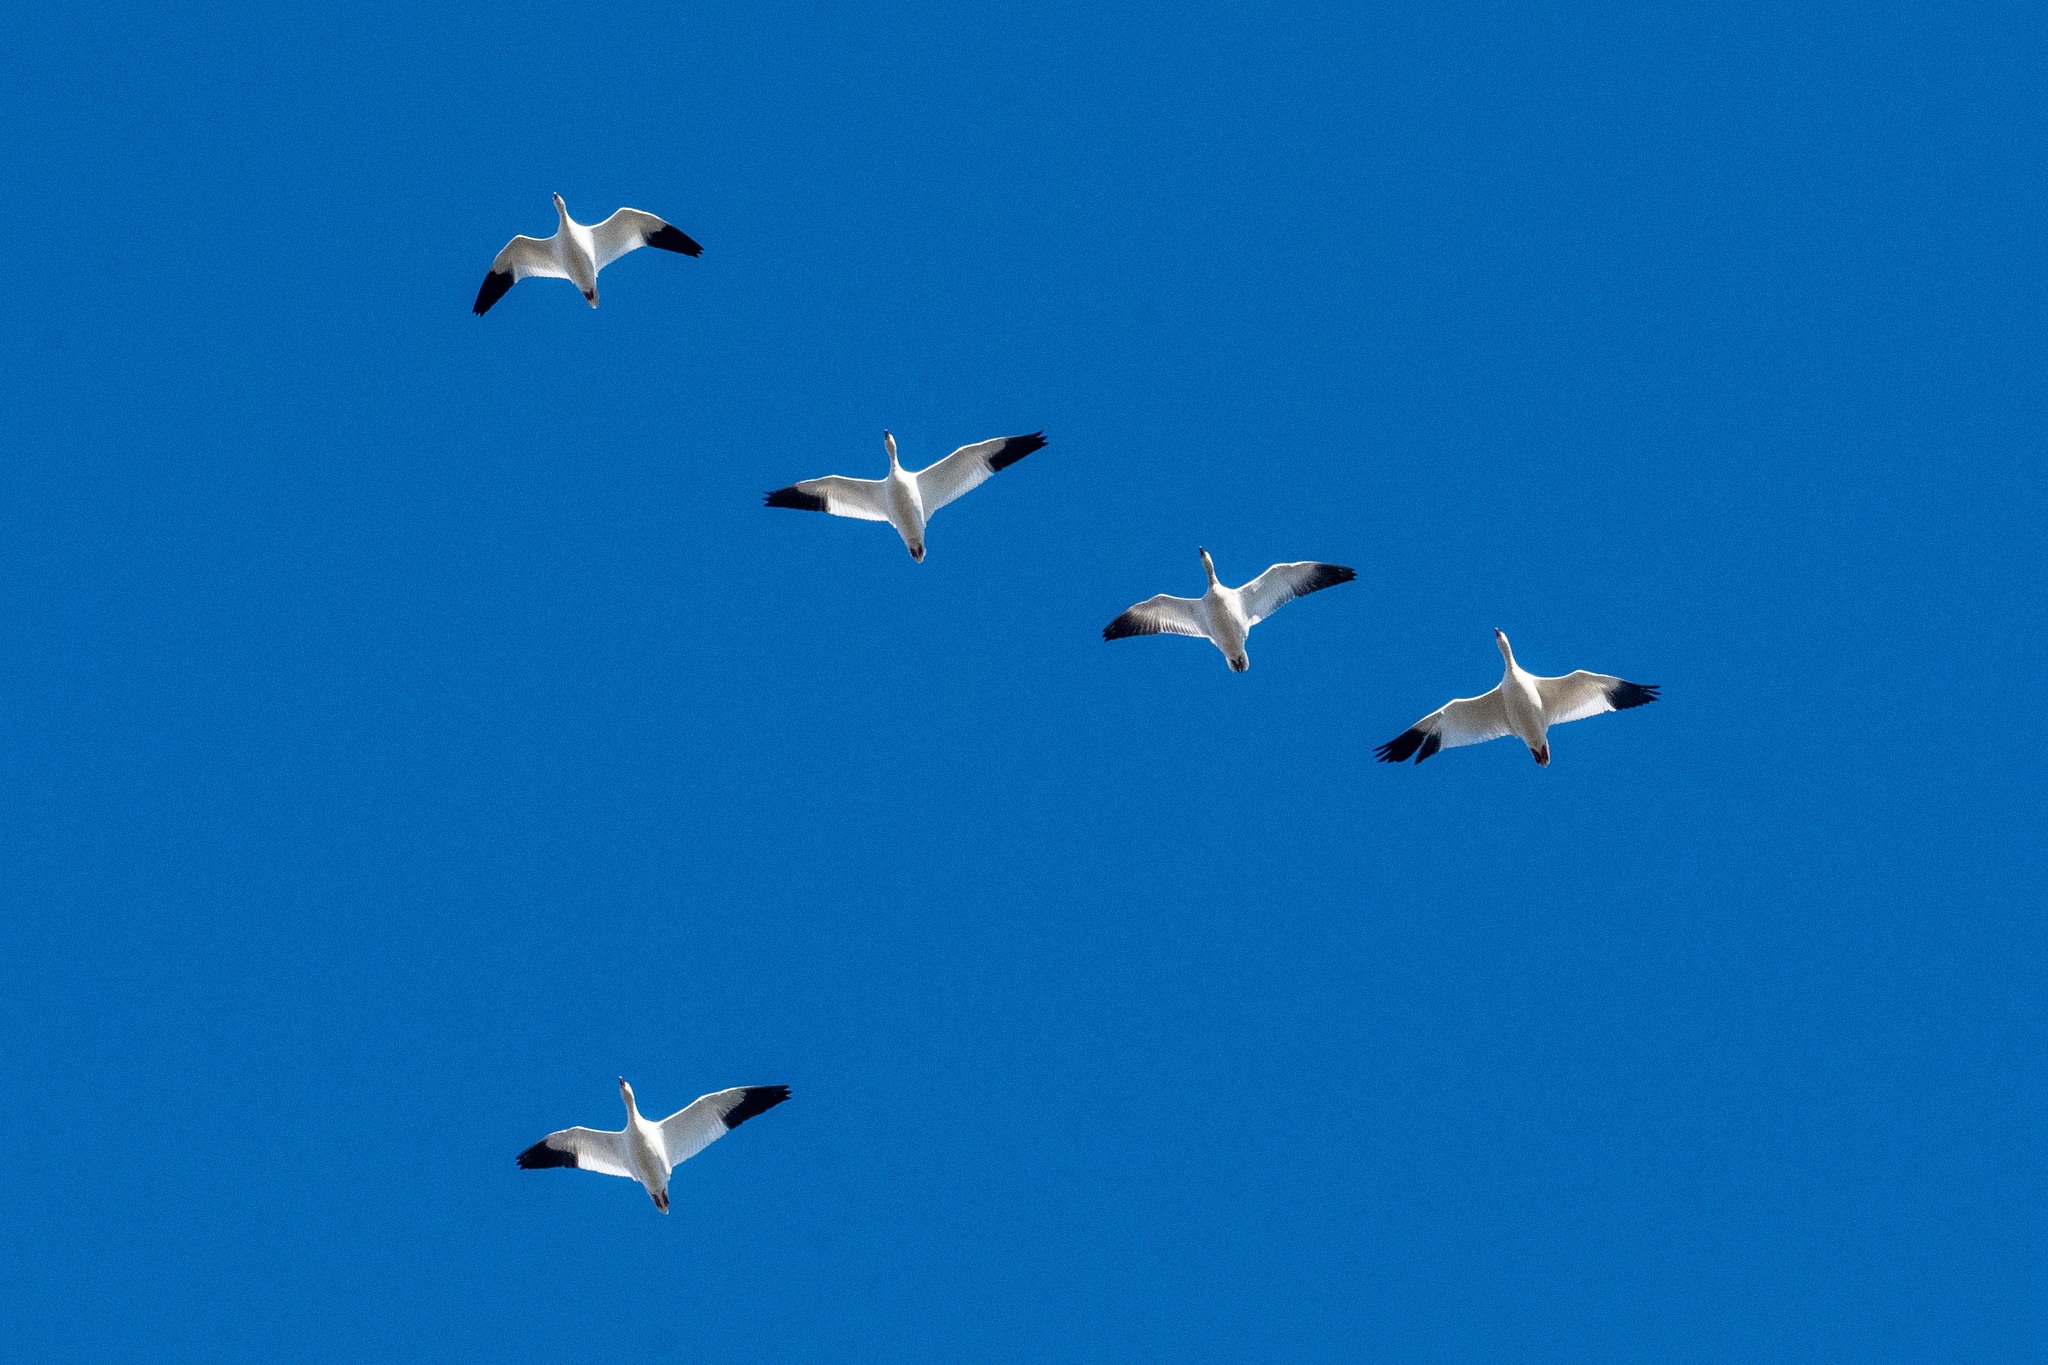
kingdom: Animalia
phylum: Chordata
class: Aves
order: Anseriformes
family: Anatidae
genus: Anser
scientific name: Anser caerulescens
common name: Snow goose
